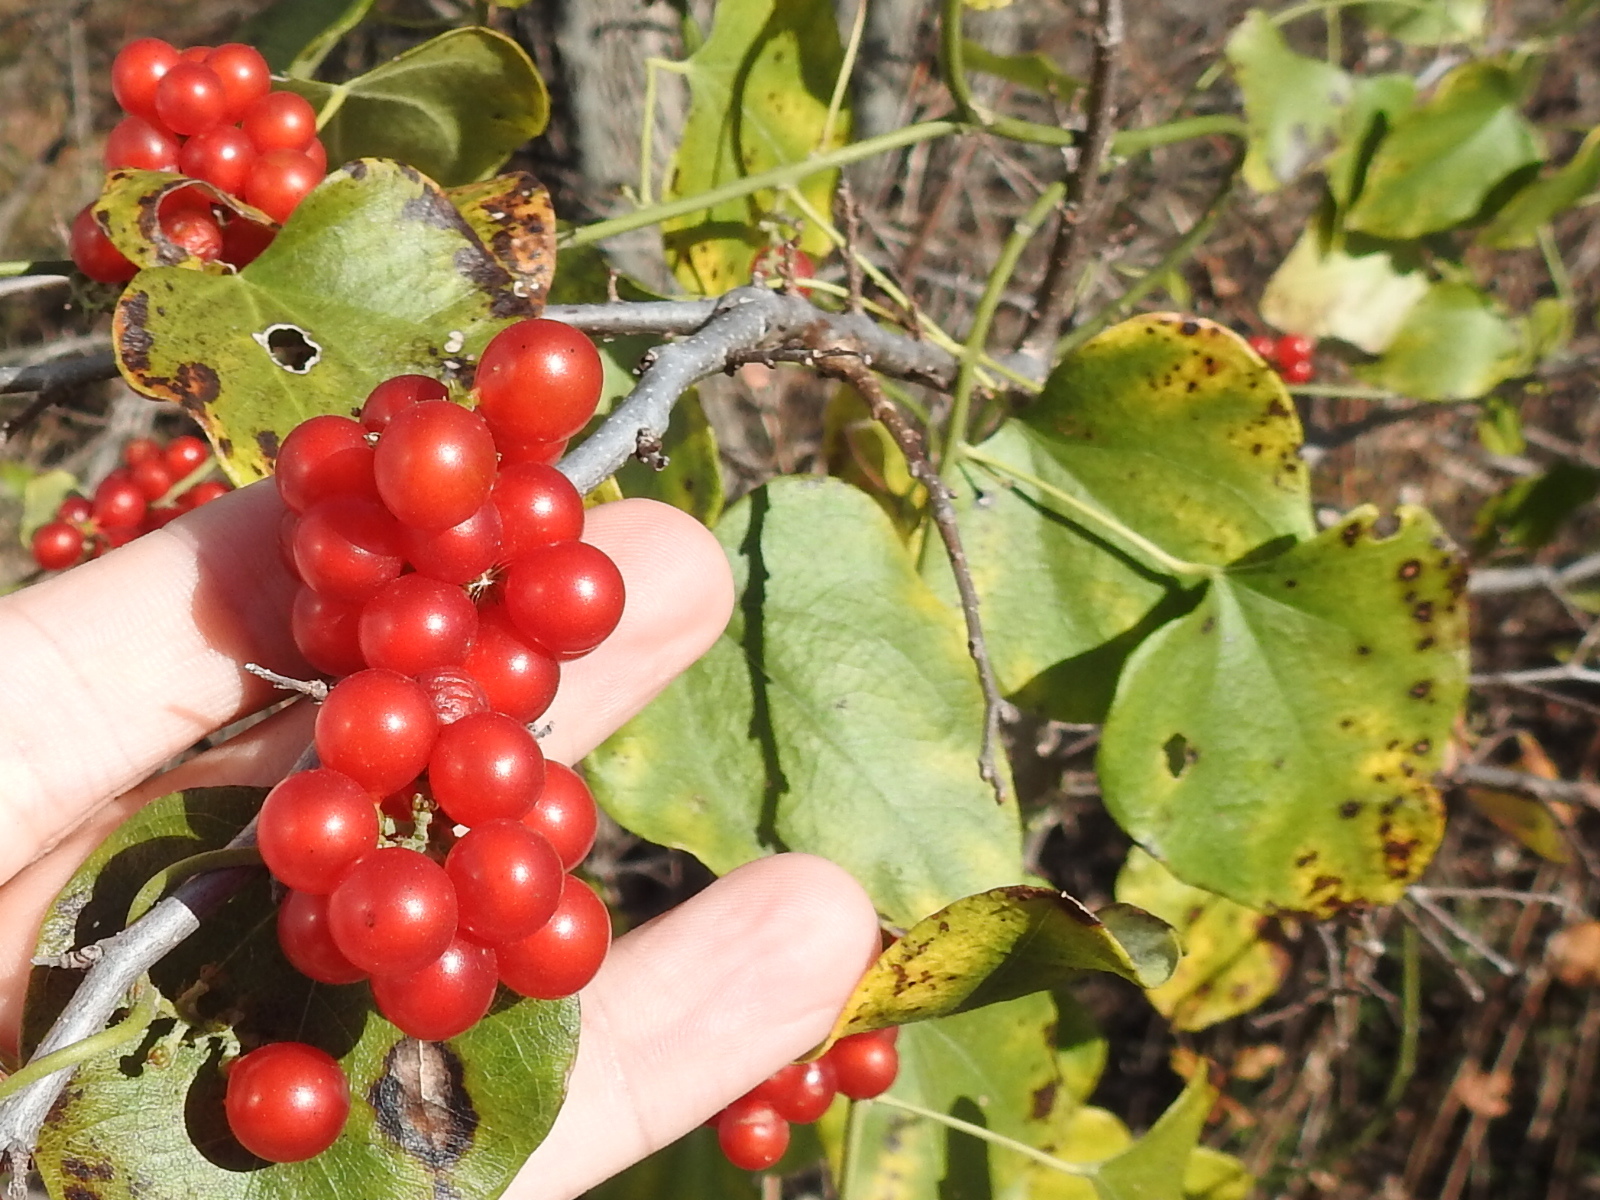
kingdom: Plantae
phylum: Tracheophyta
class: Magnoliopsida
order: Ranunculales
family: Menispermaceae
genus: Cocculus
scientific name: Cocculus carolinus
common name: Carolina moonseed
